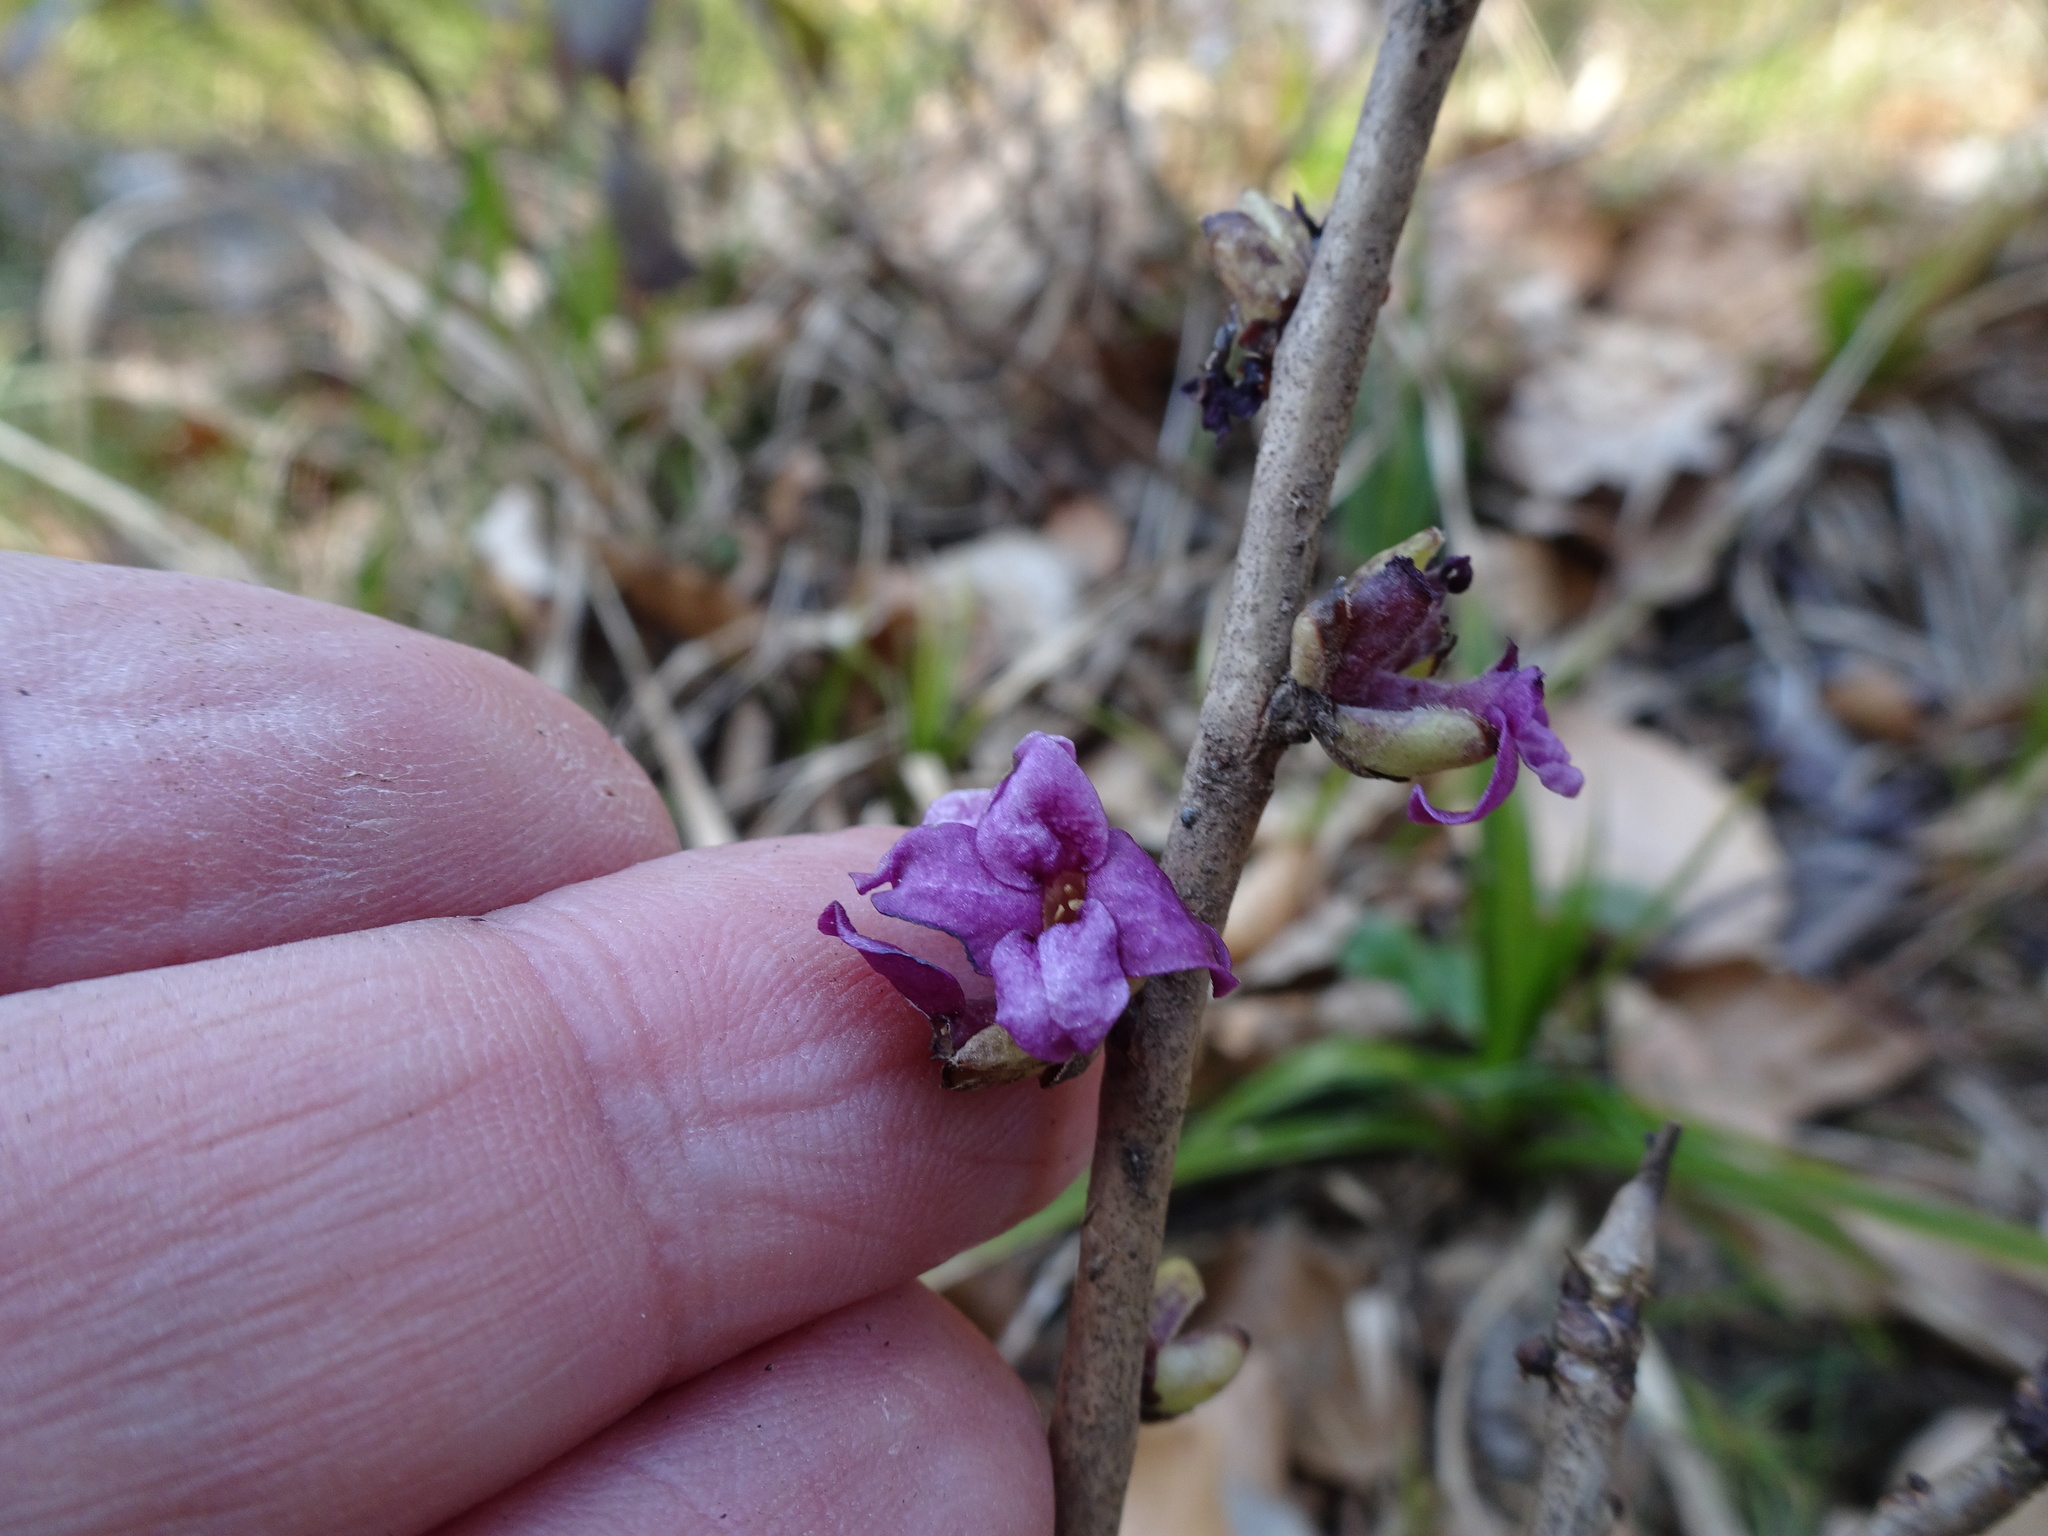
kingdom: Plantae
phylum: Tracheophyta
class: Magnoliopsida
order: Malvales
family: Thymelaeaceae
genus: Daphne
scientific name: Daphne mezereum
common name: Mezereon
